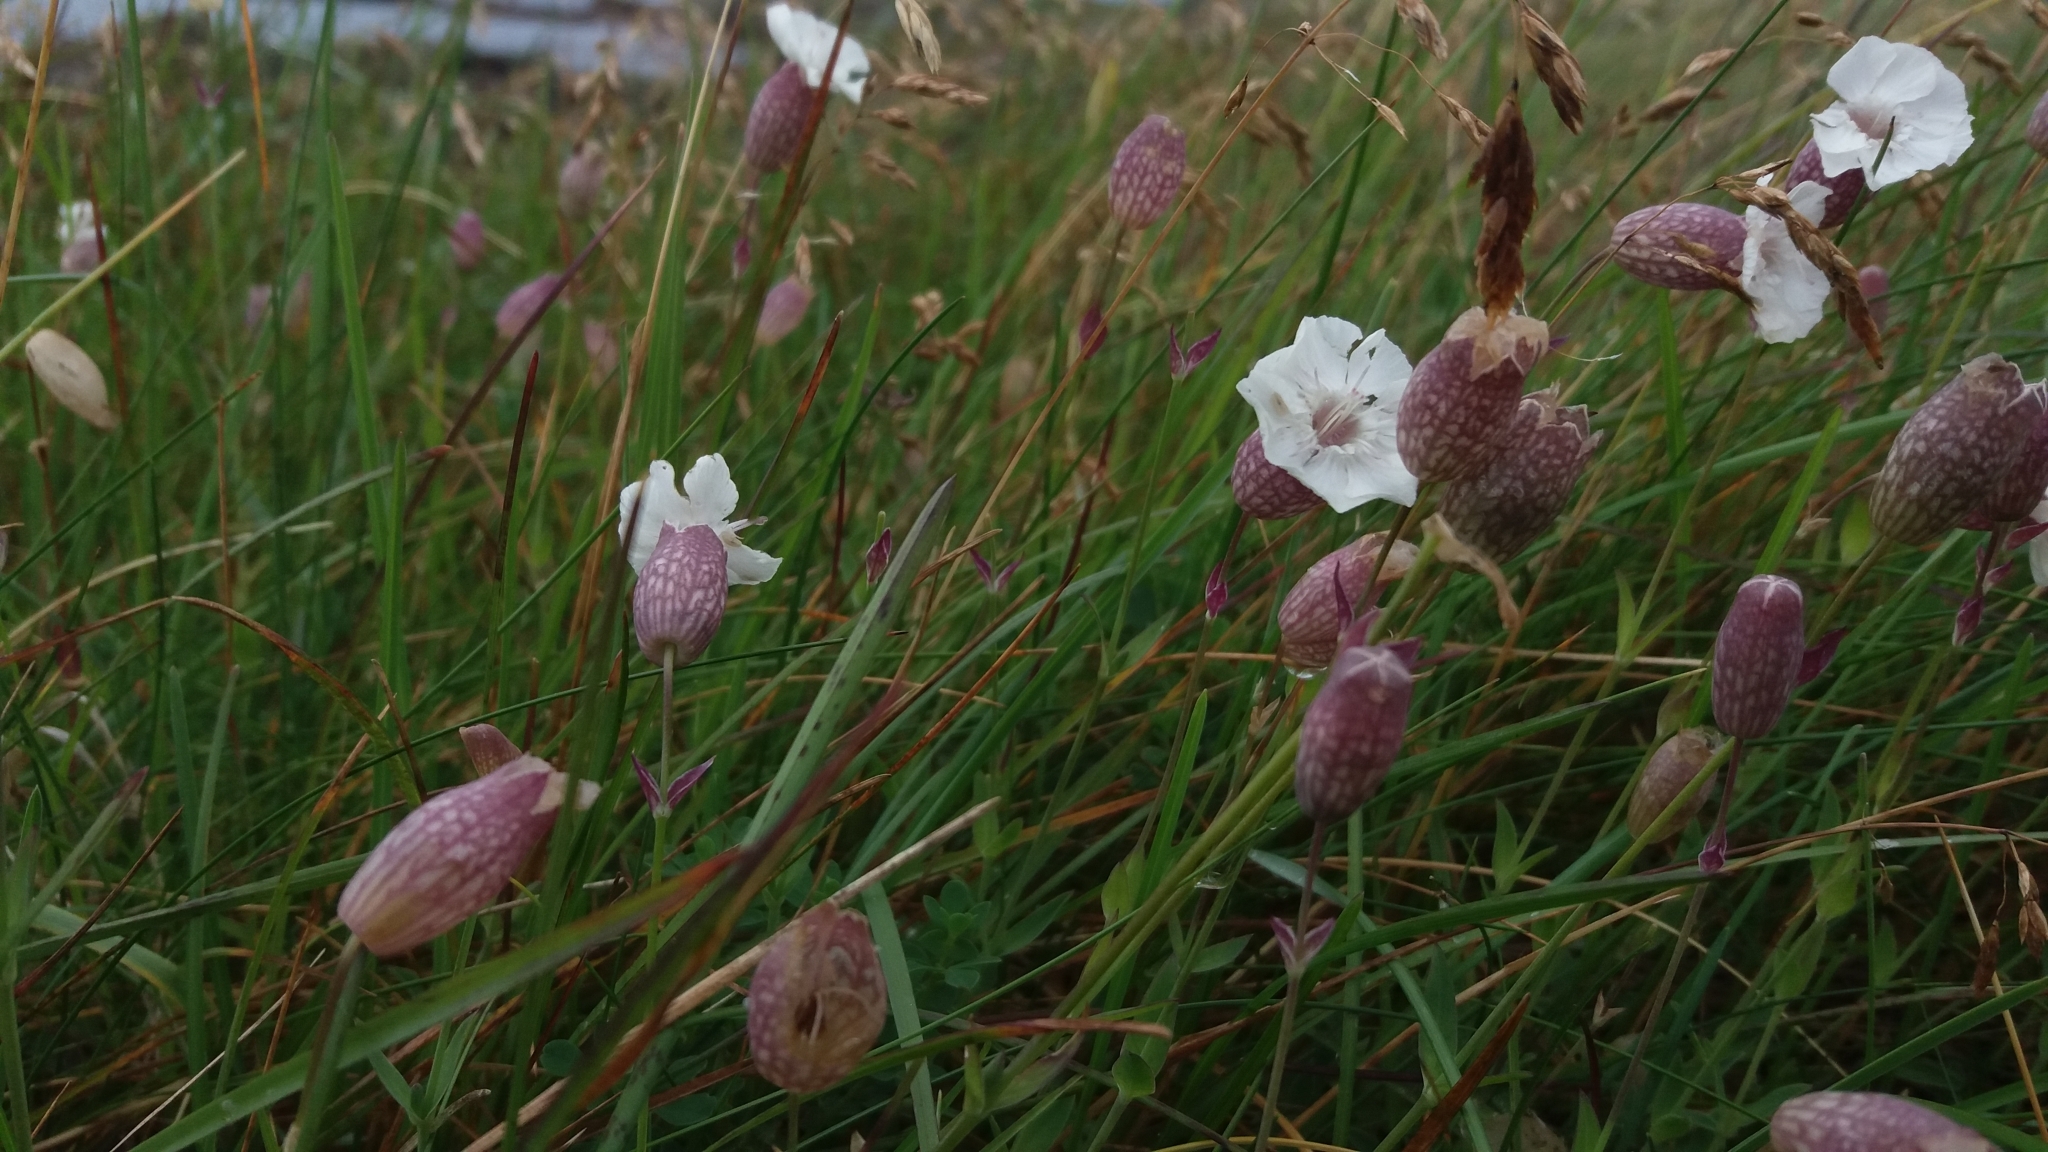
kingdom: Plantae
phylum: Tracheophyta
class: Magnoliopsida
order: Caryophyllales
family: Caryophyllaceae
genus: Silene
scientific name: Silene uniflora
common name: Sea campion
